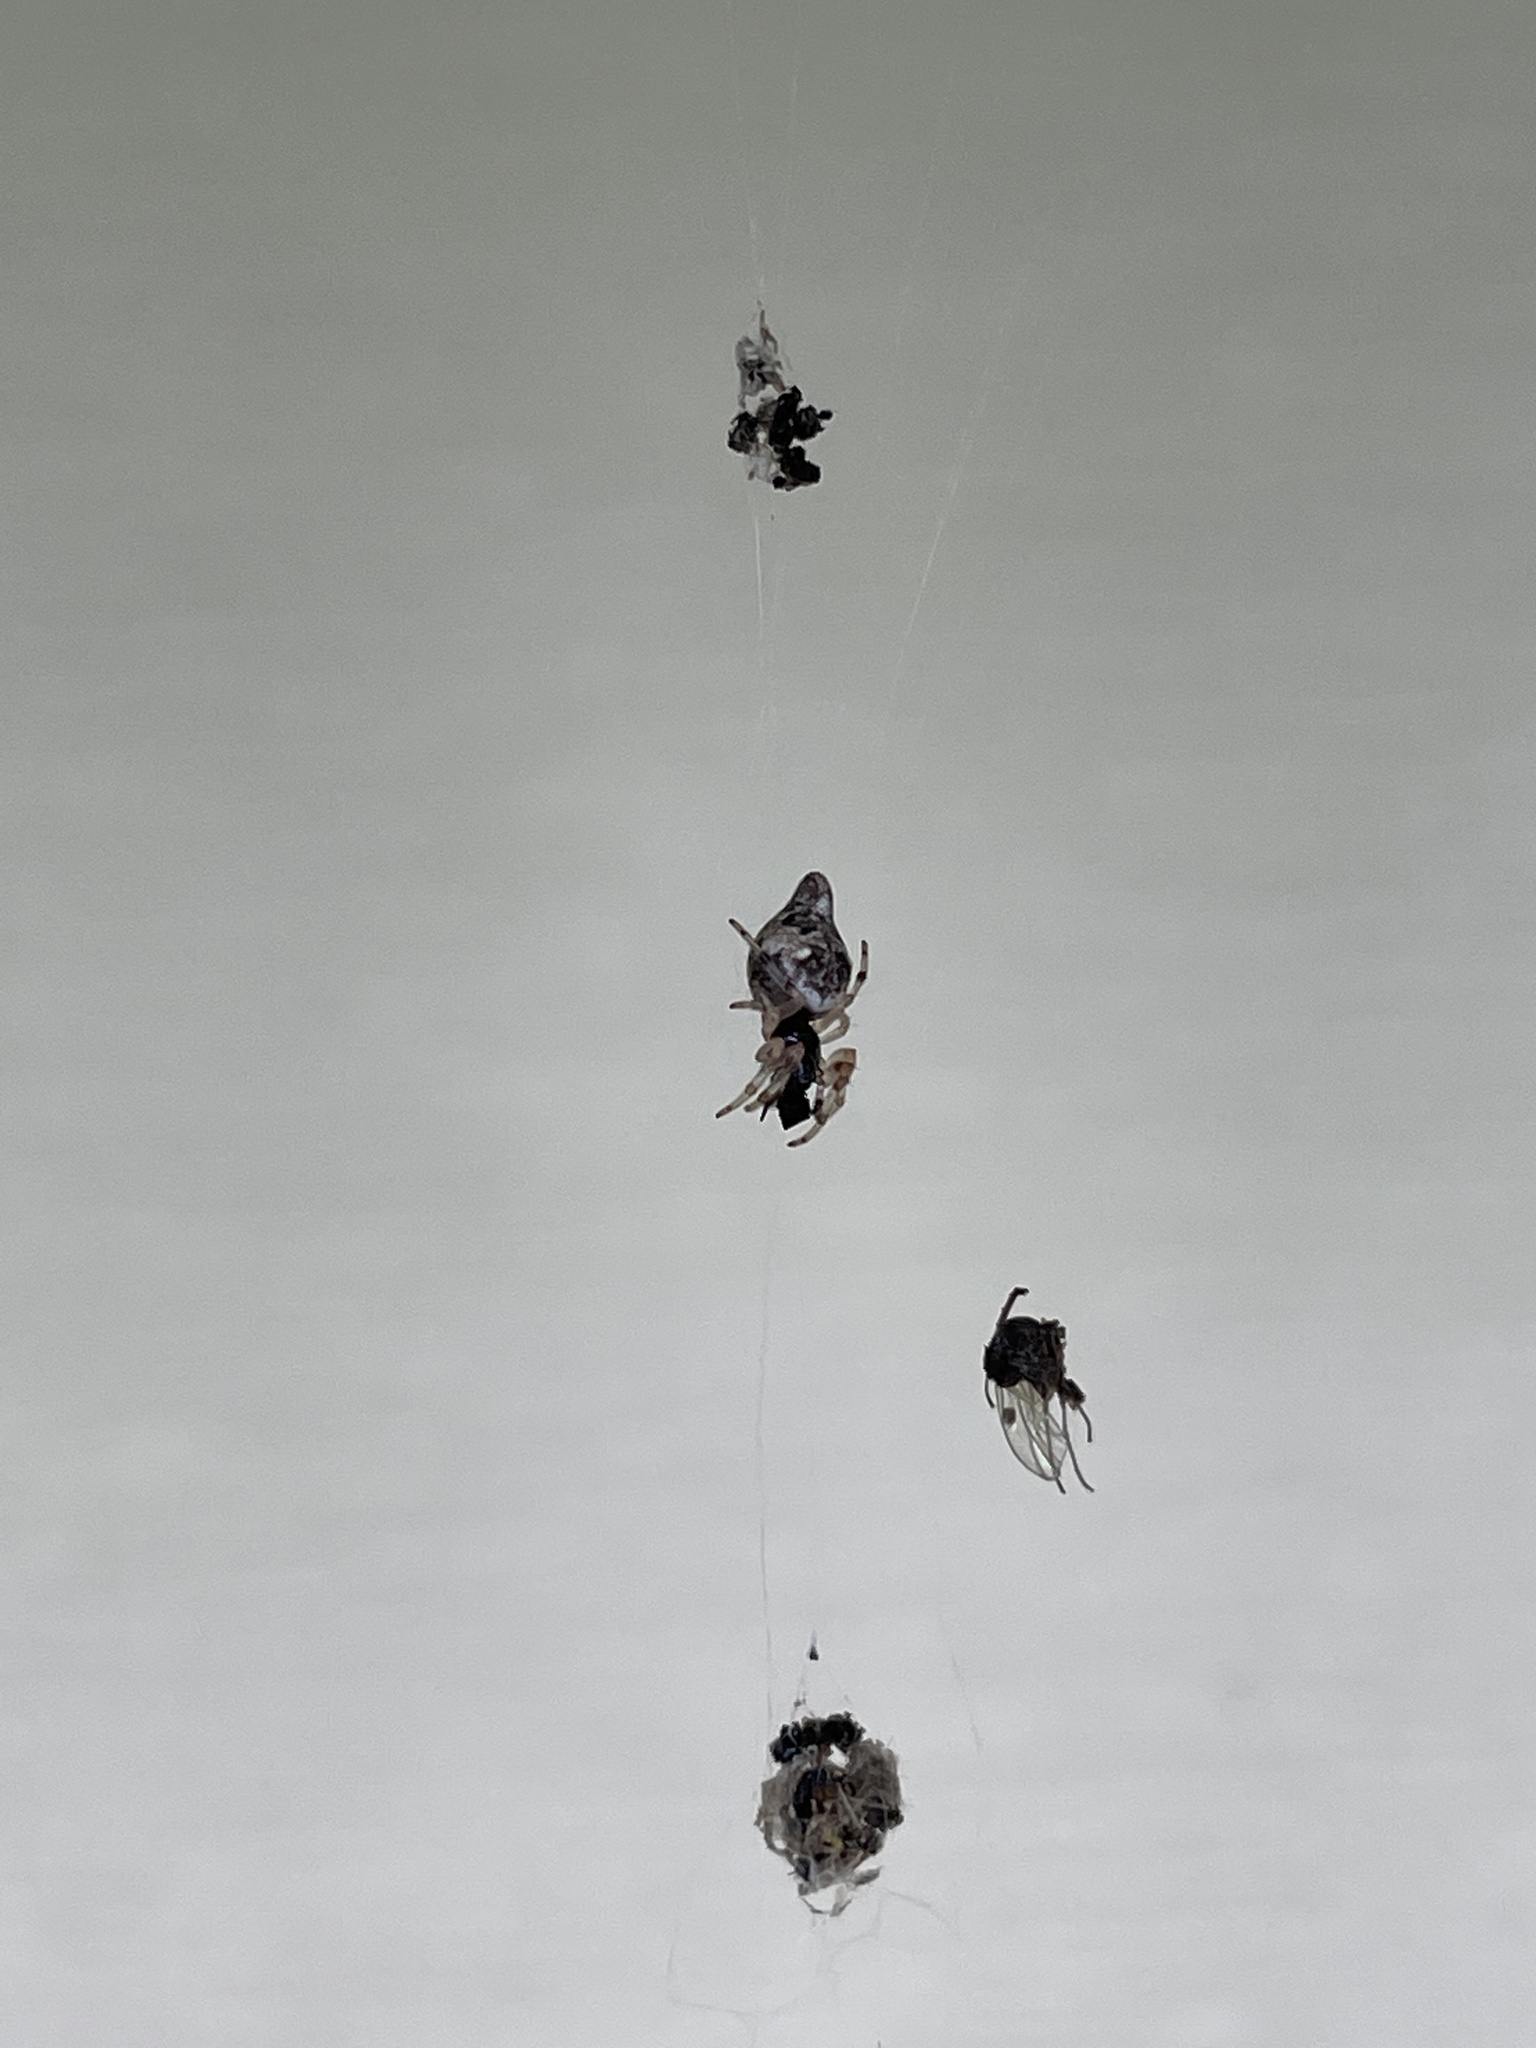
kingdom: Animalia
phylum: Arthropoda
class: Arachnida
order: Araneae
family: Araneidae
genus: Cyclosa
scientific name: Cyclosa turbinata
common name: Orb weavers
